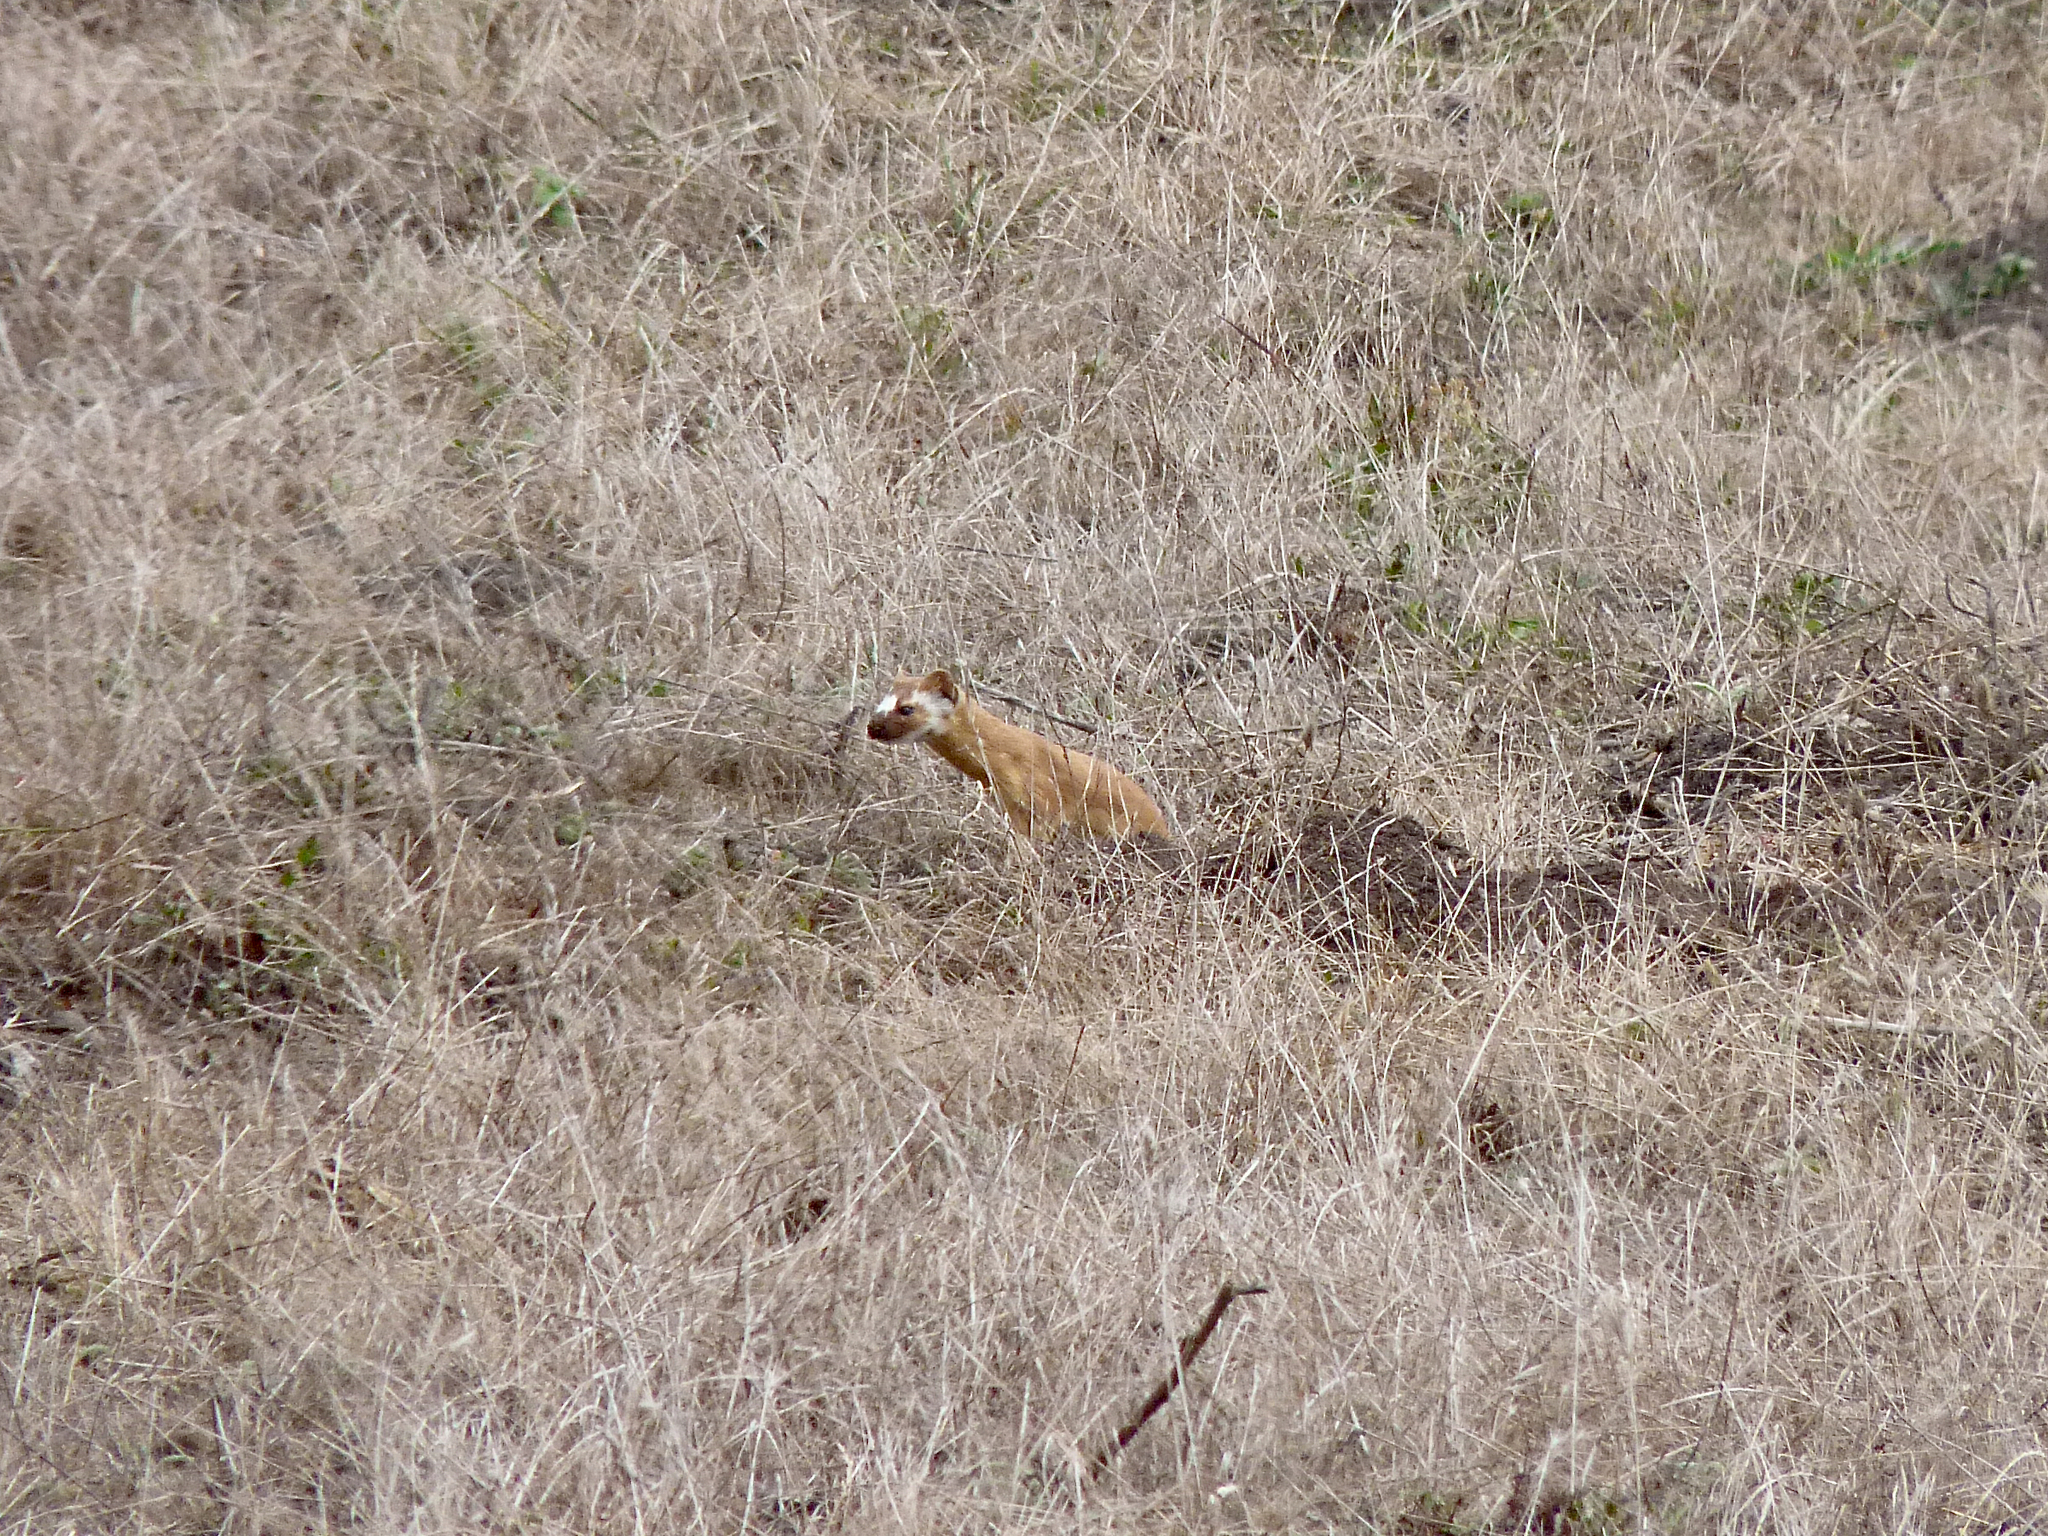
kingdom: Animalia
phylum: Chordata
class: Mammalia
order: Carnivora
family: Mustelidae
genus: Mustela
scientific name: Mustela
